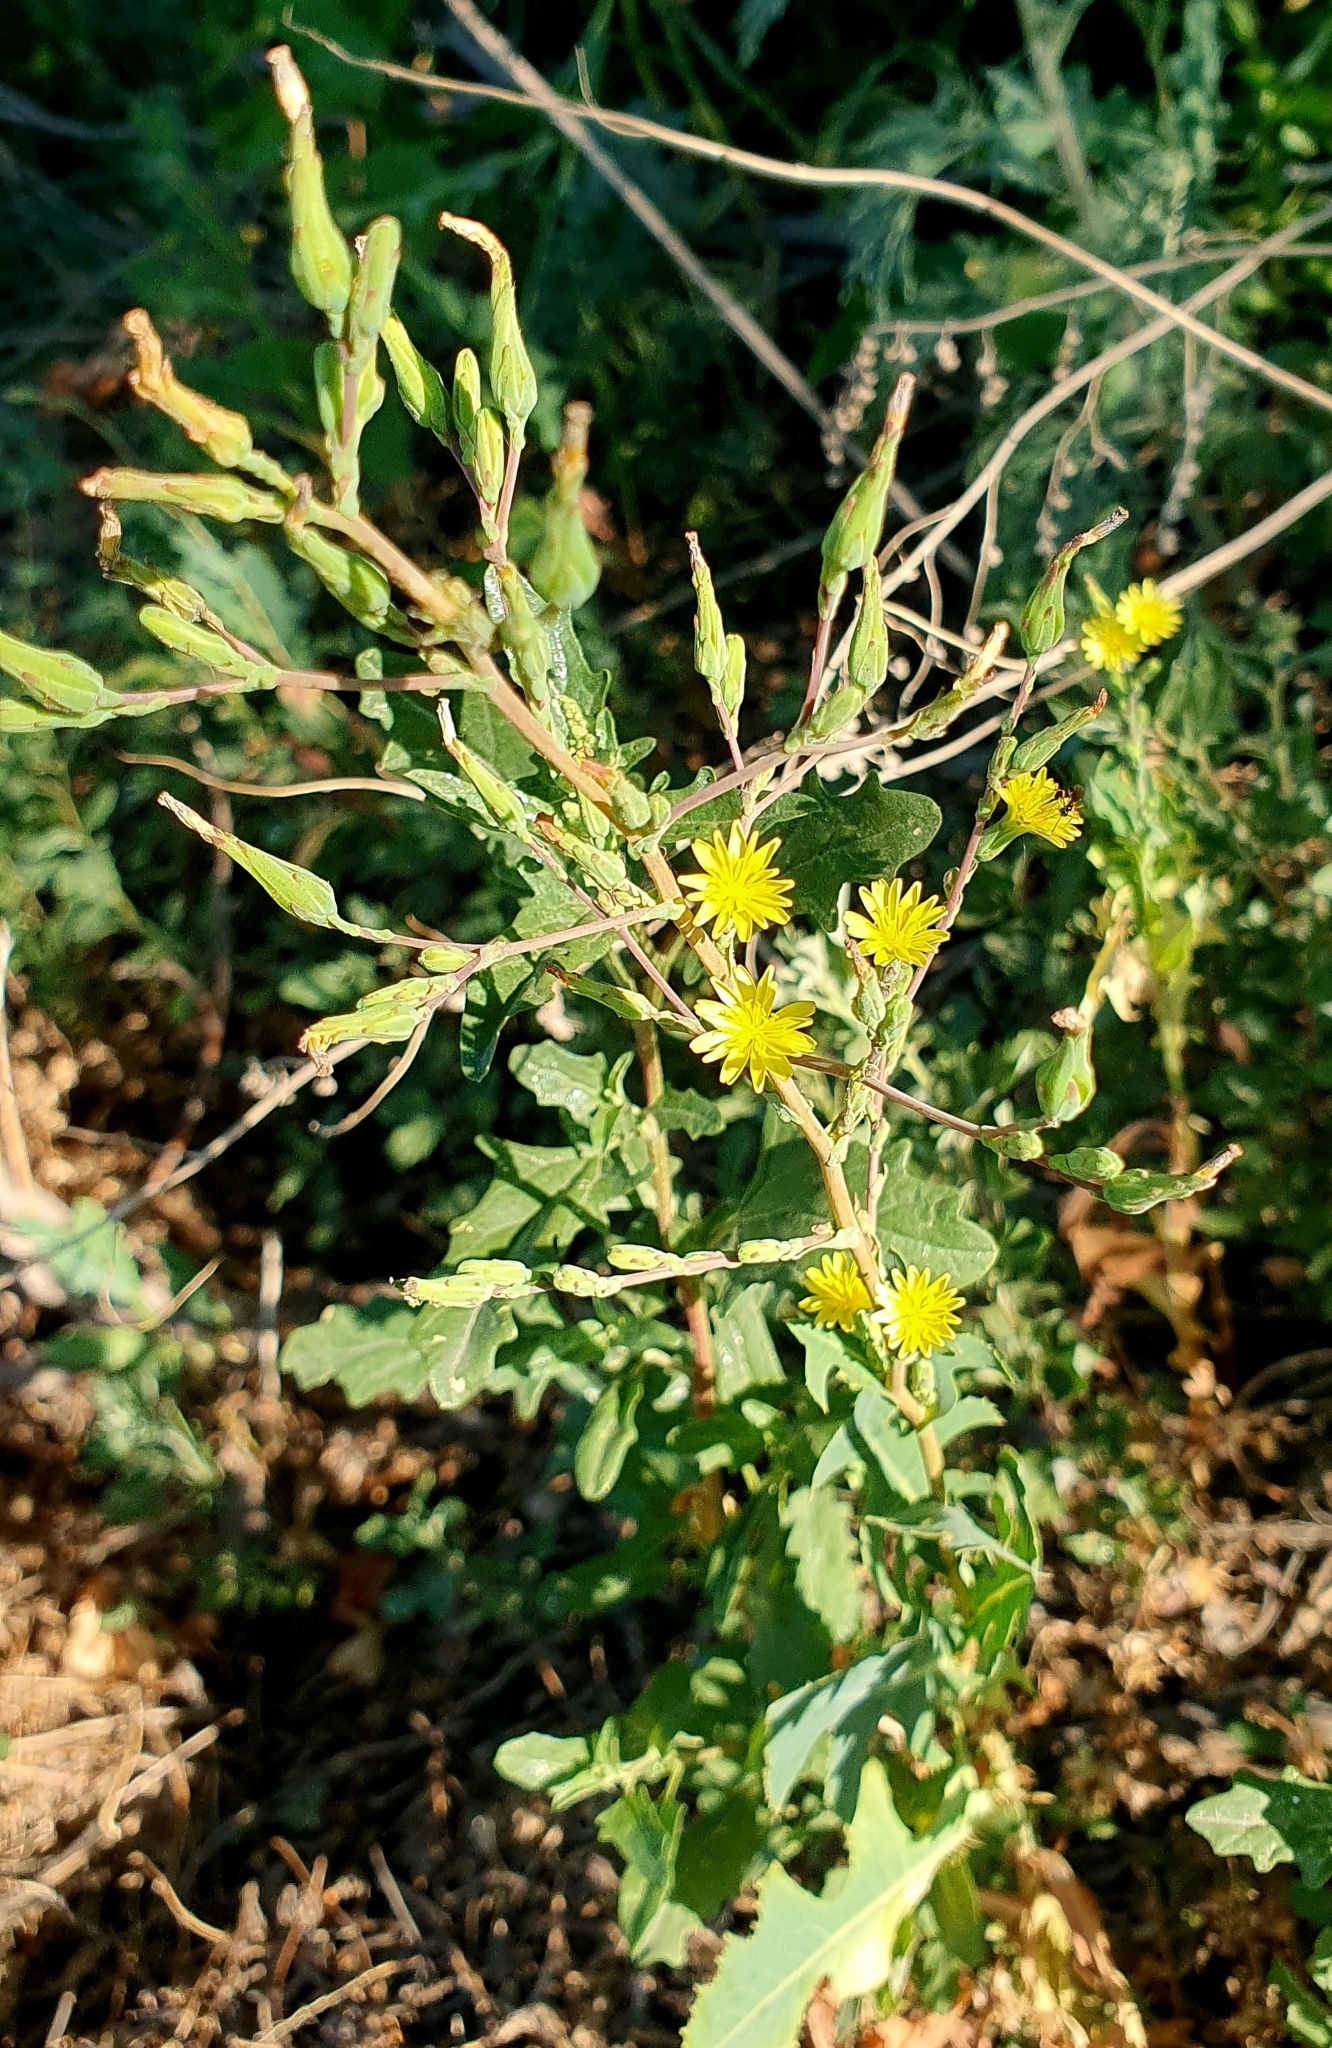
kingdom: Plantae
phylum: Tracheophyta
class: Magnoliopsida
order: Asterales
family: Asteraceae
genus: Lactuca
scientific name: Lactuca serriola
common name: Prickly lettuce
